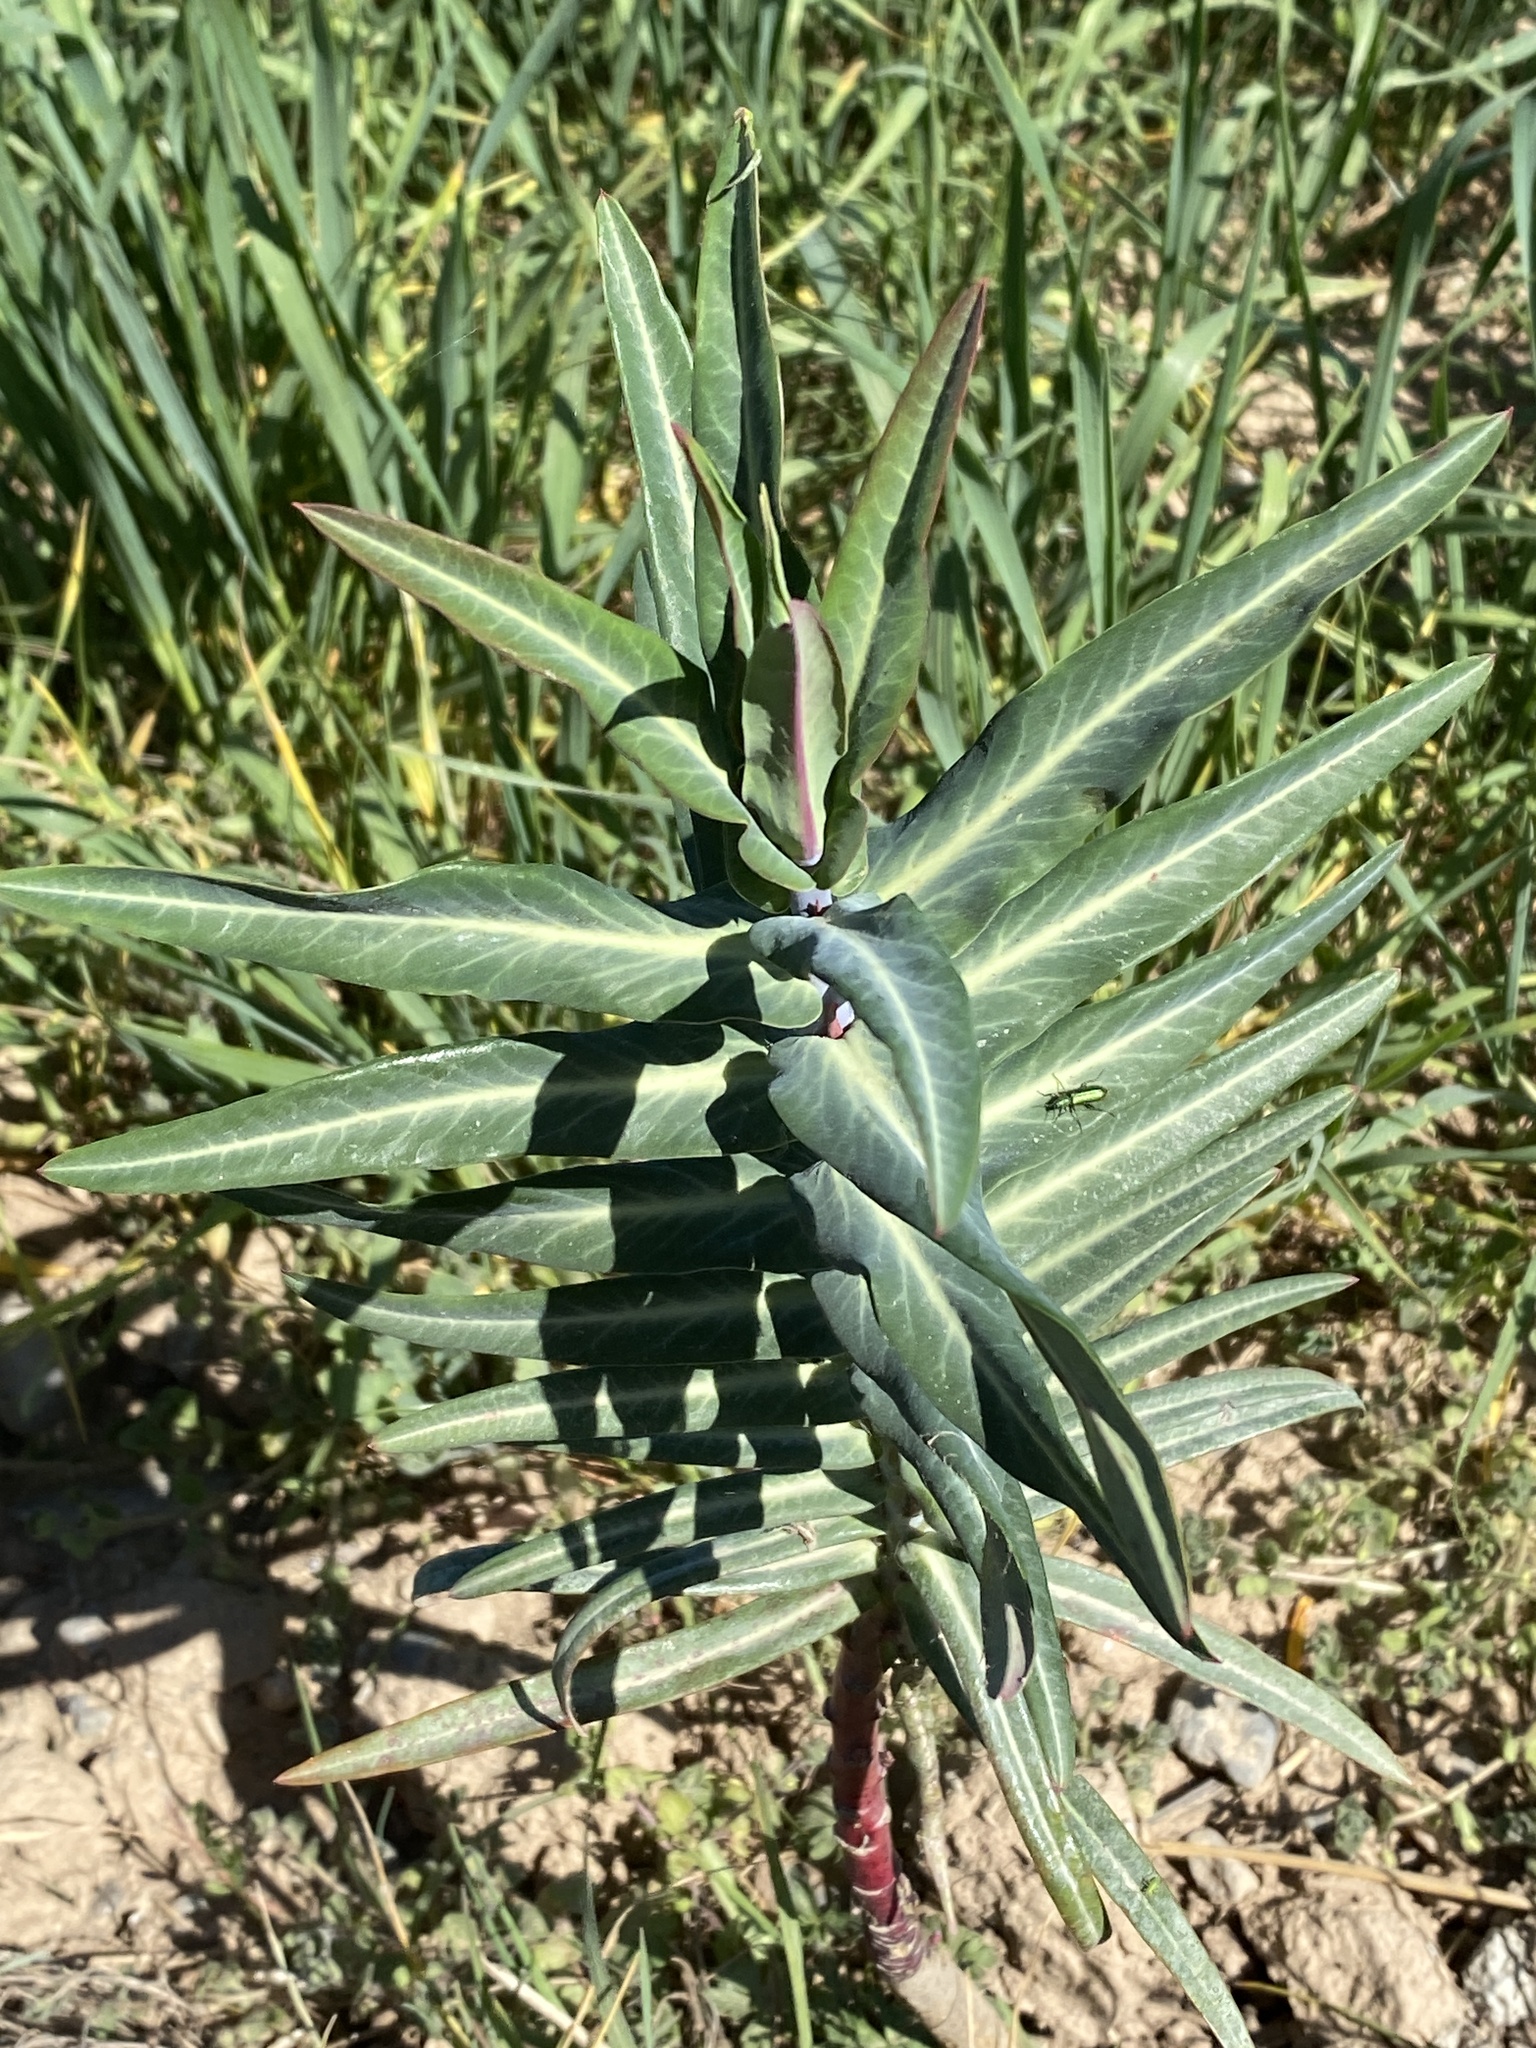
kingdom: Plantae
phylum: Tracheophyta
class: Magnoliopsida
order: Malpighiales
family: Euphorbiaceae
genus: Euphorbia
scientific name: Euphorbia lathyris
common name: Caper spurge
